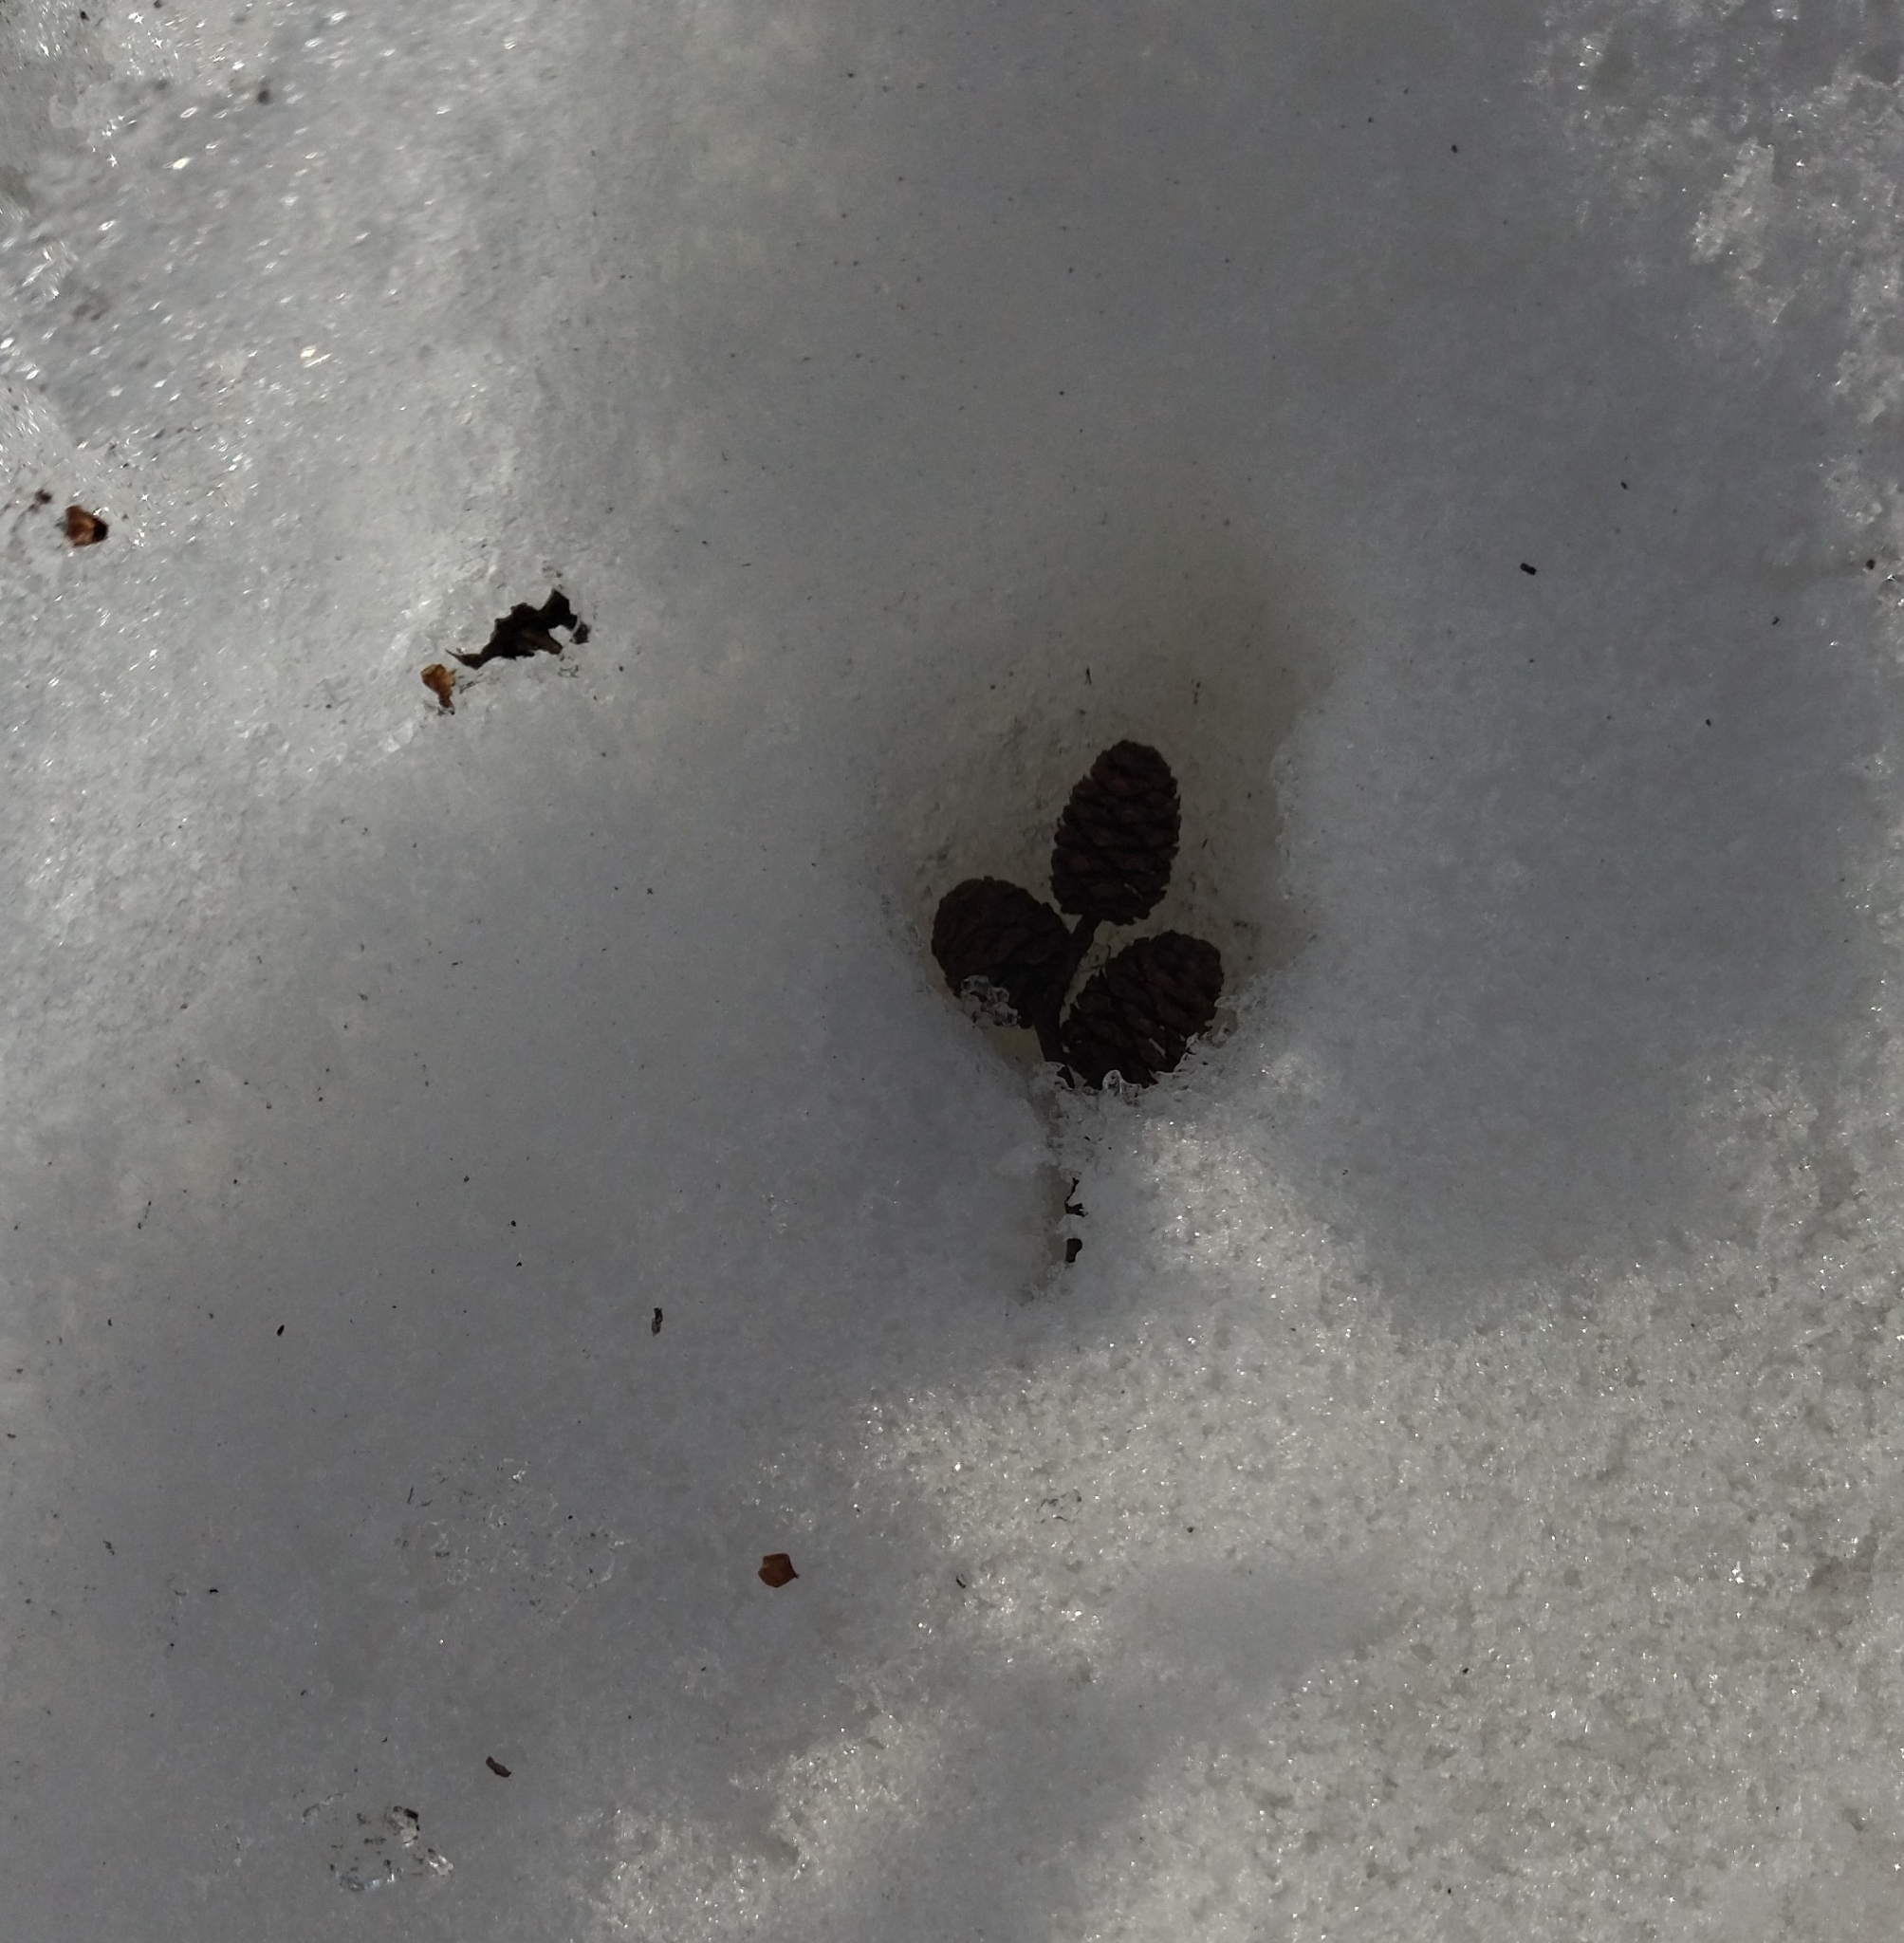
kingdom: Plantae
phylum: Tracheophyta
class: Magnoliopsida
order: Fagales
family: Betulaceae
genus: Alnus
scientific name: Alnus incana
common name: Grey alder
